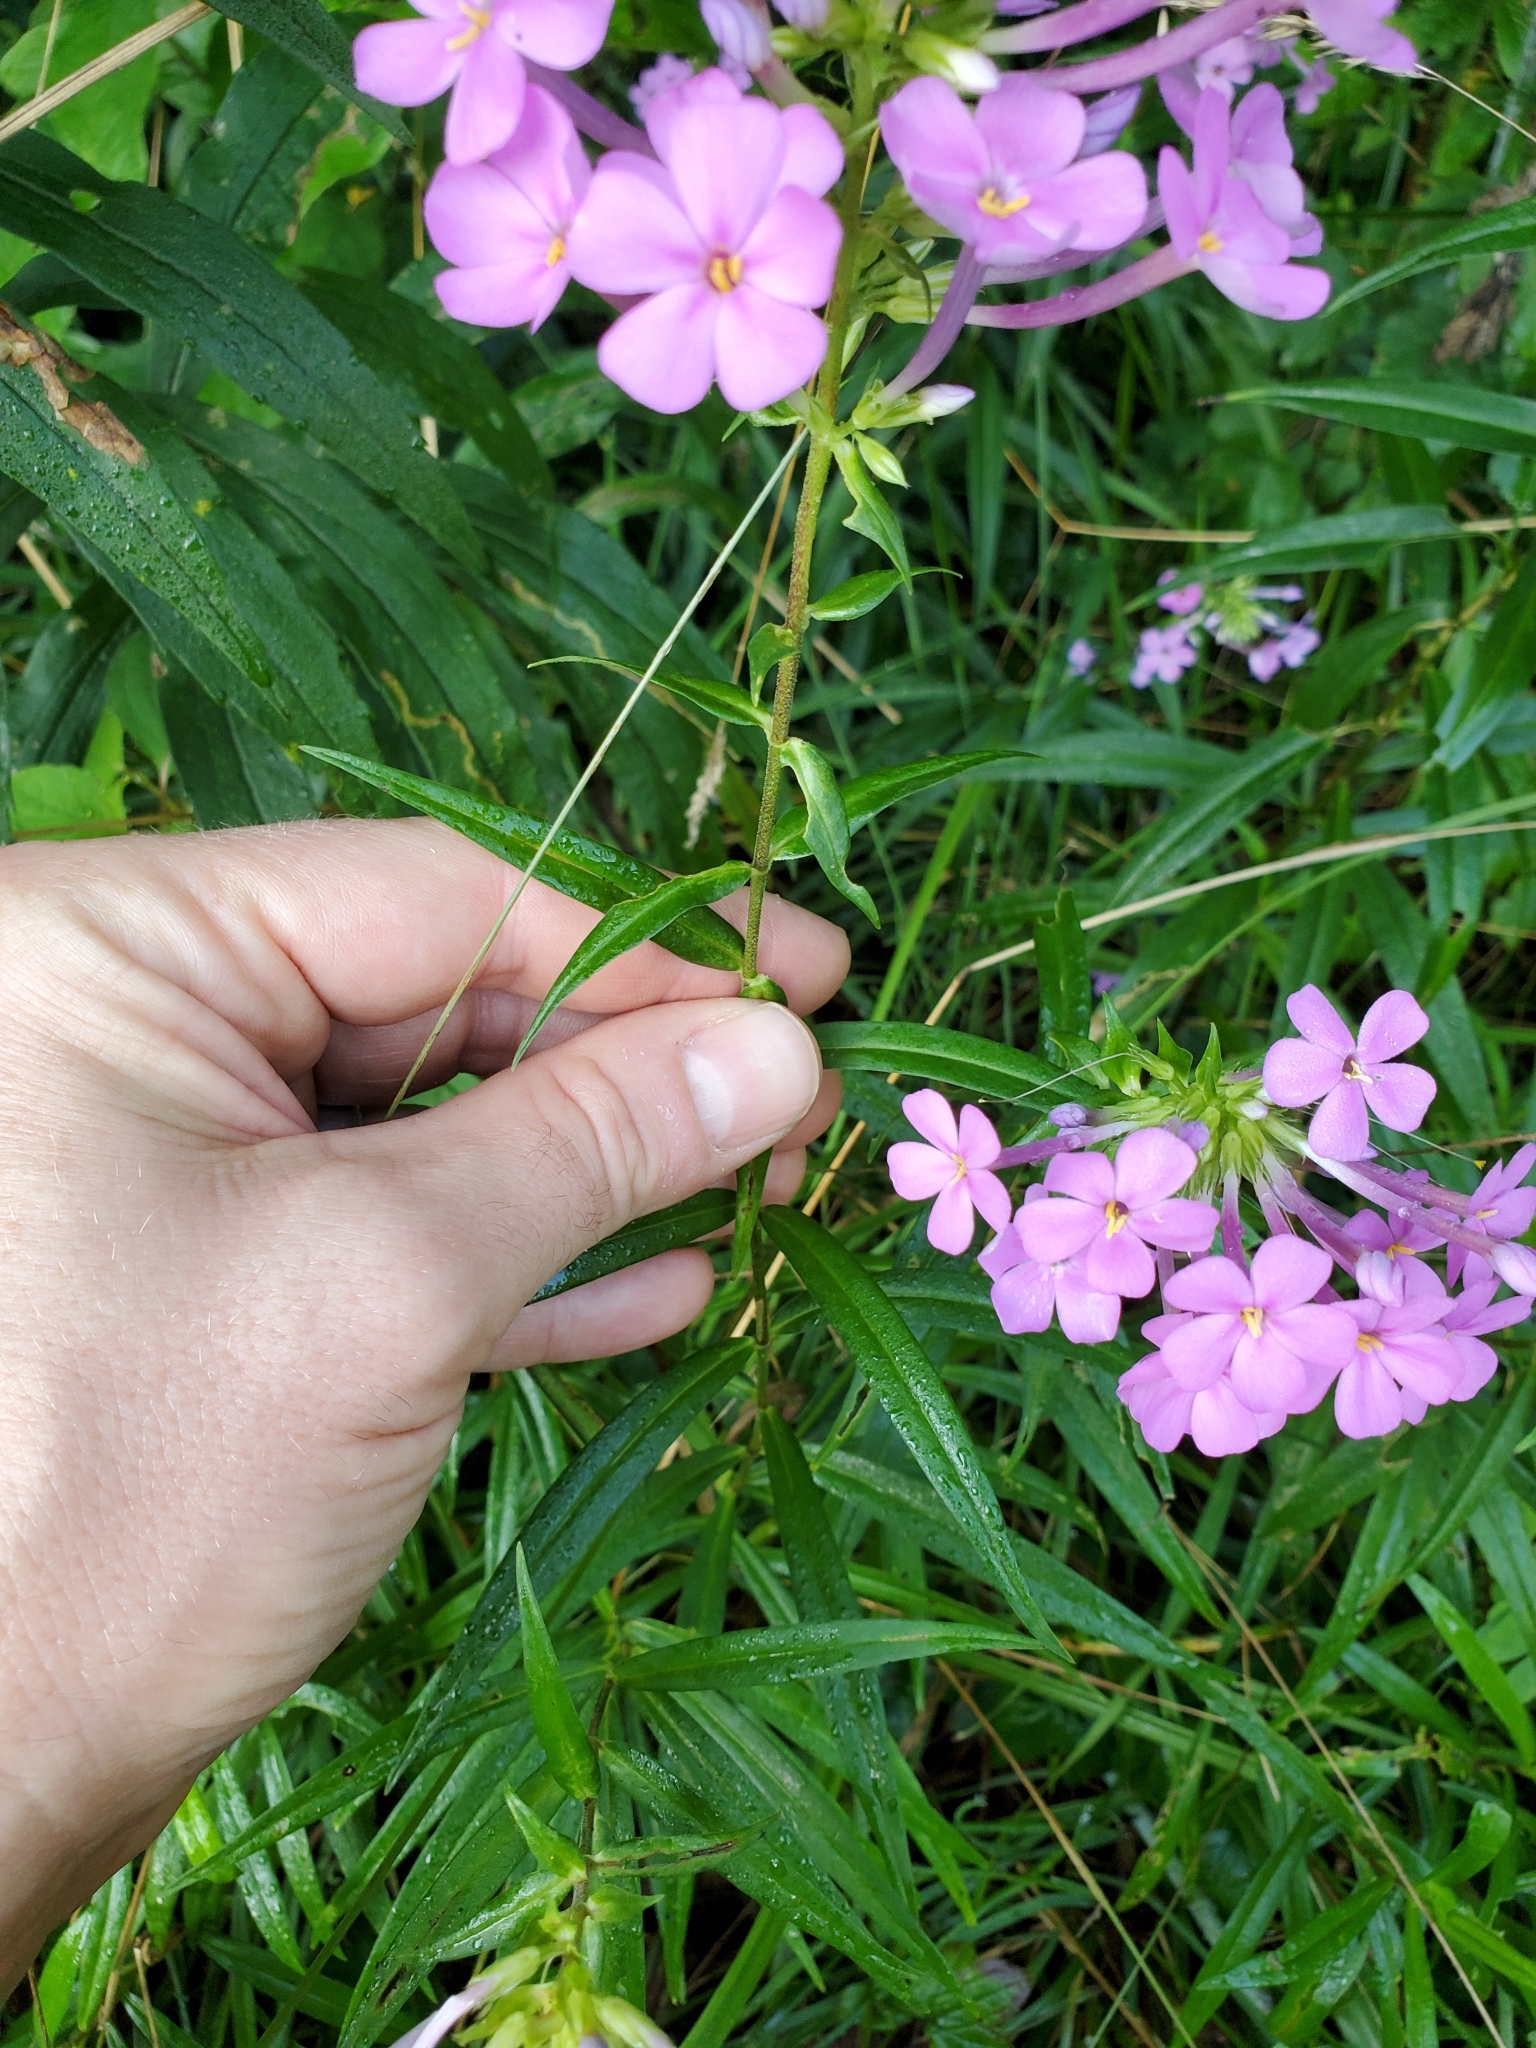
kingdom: Plantae
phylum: Tracheophyta
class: Magnoliopsida
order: Ericales
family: Polemoniaceae
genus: Phlox
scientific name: Phlox maculata
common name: Meadow phlox
